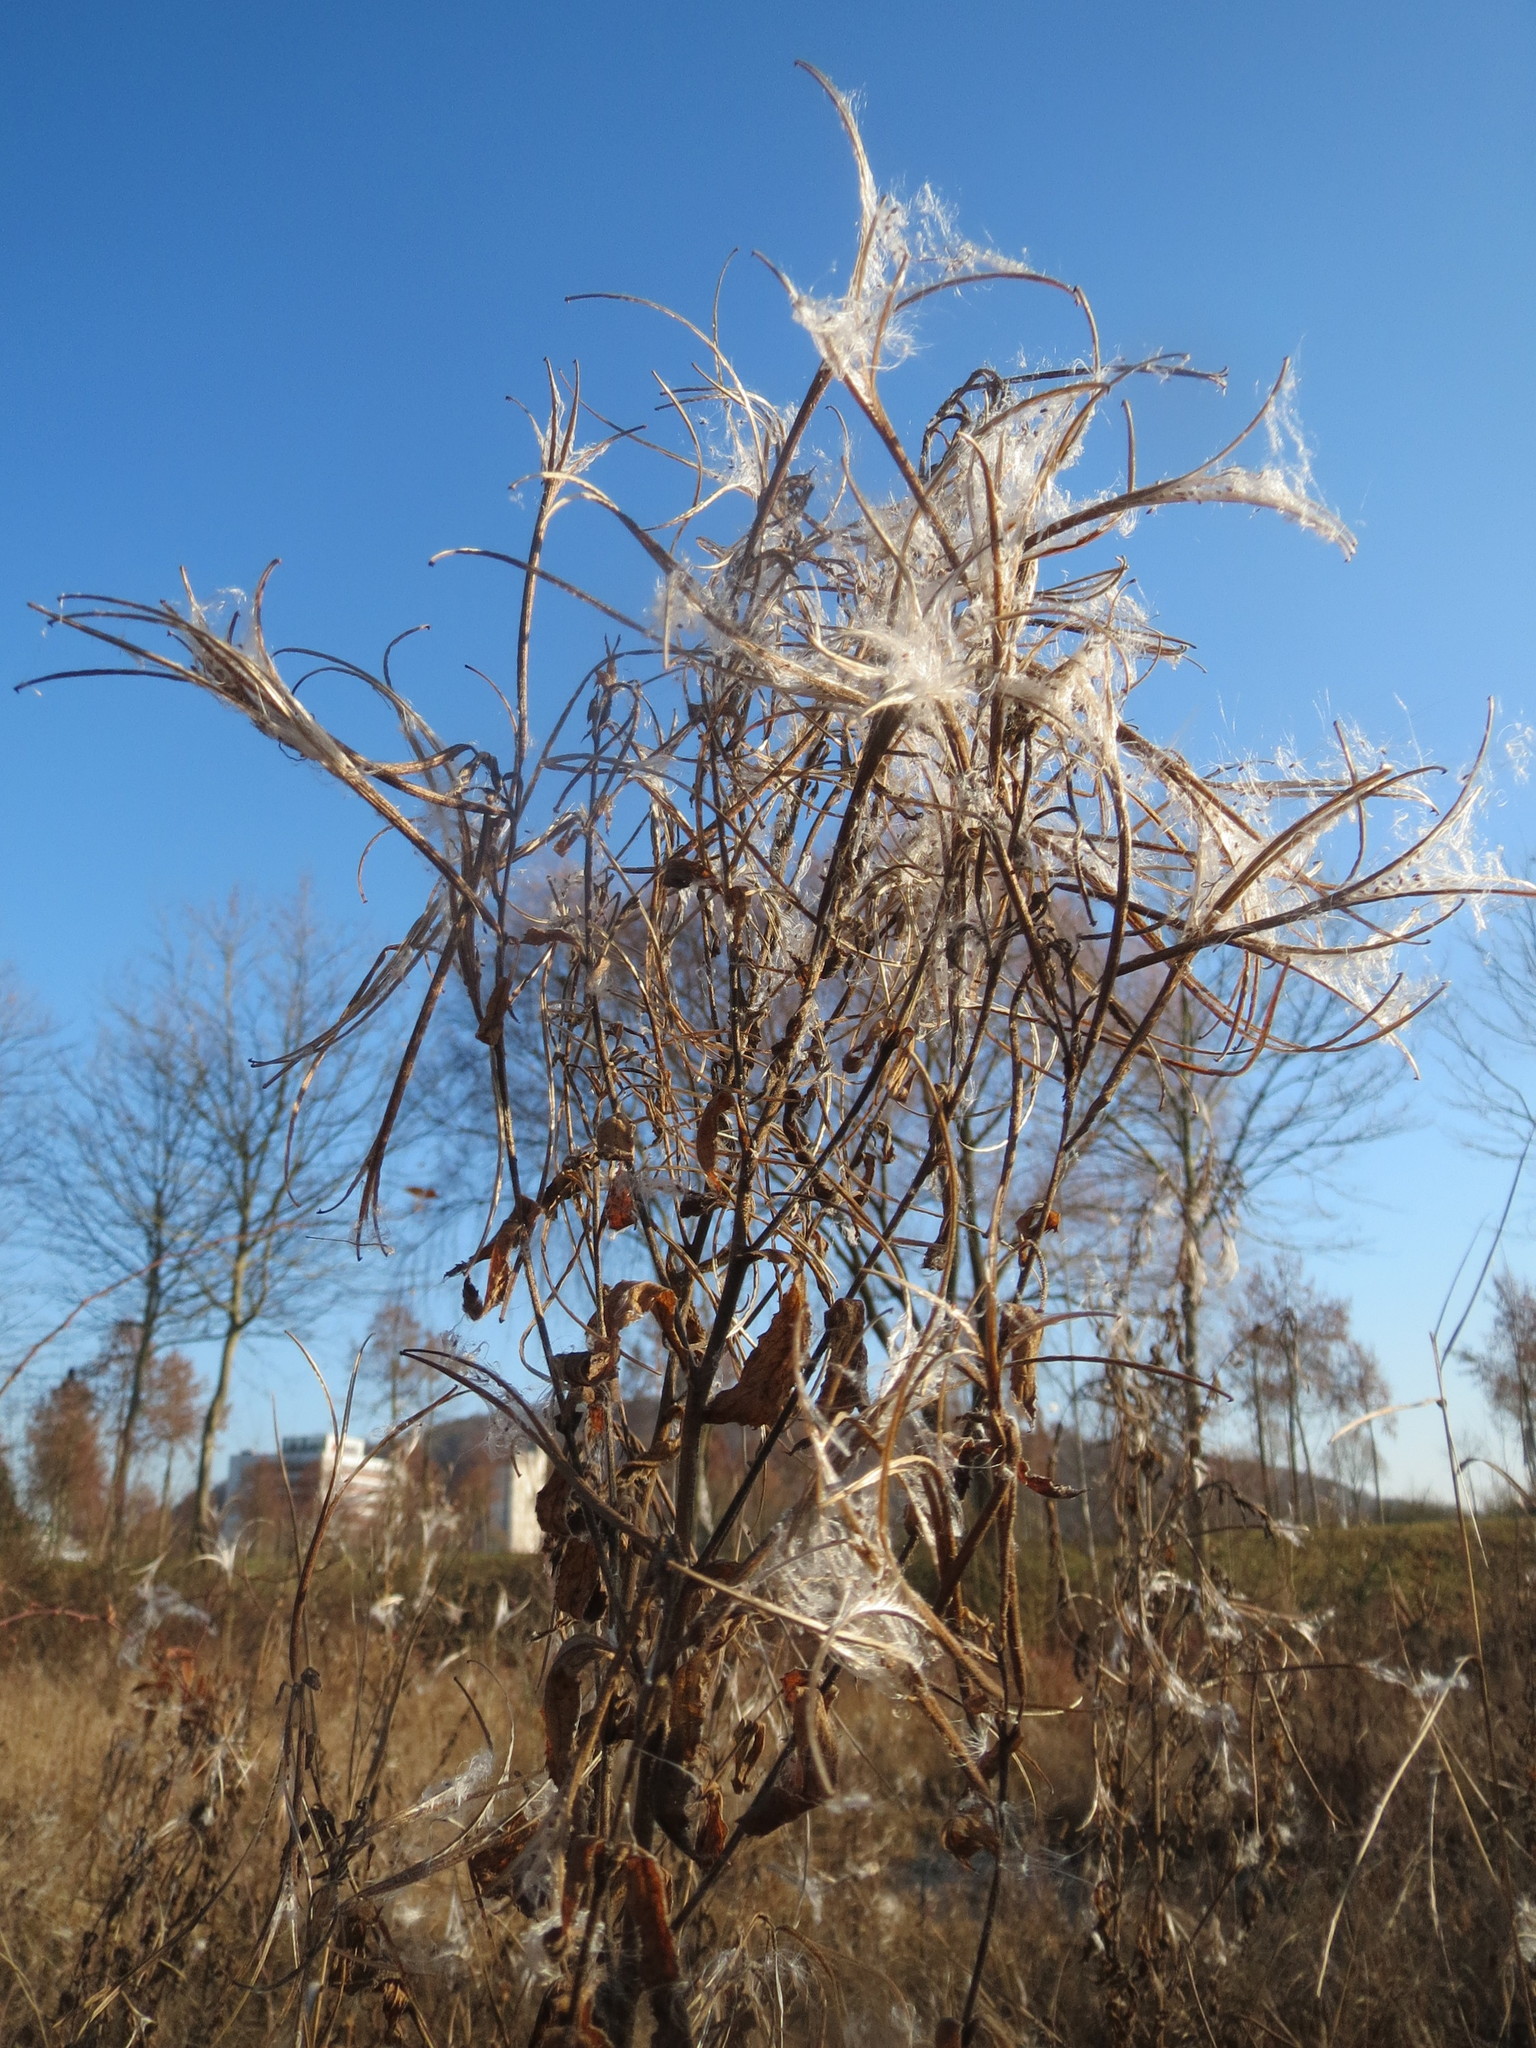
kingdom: Plantae
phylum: Tracheophyta
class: Magnoliopsida
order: Myrtales
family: Onagraceae
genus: Epilobium
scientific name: Epilobium hirsutum
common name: Great willowherb
